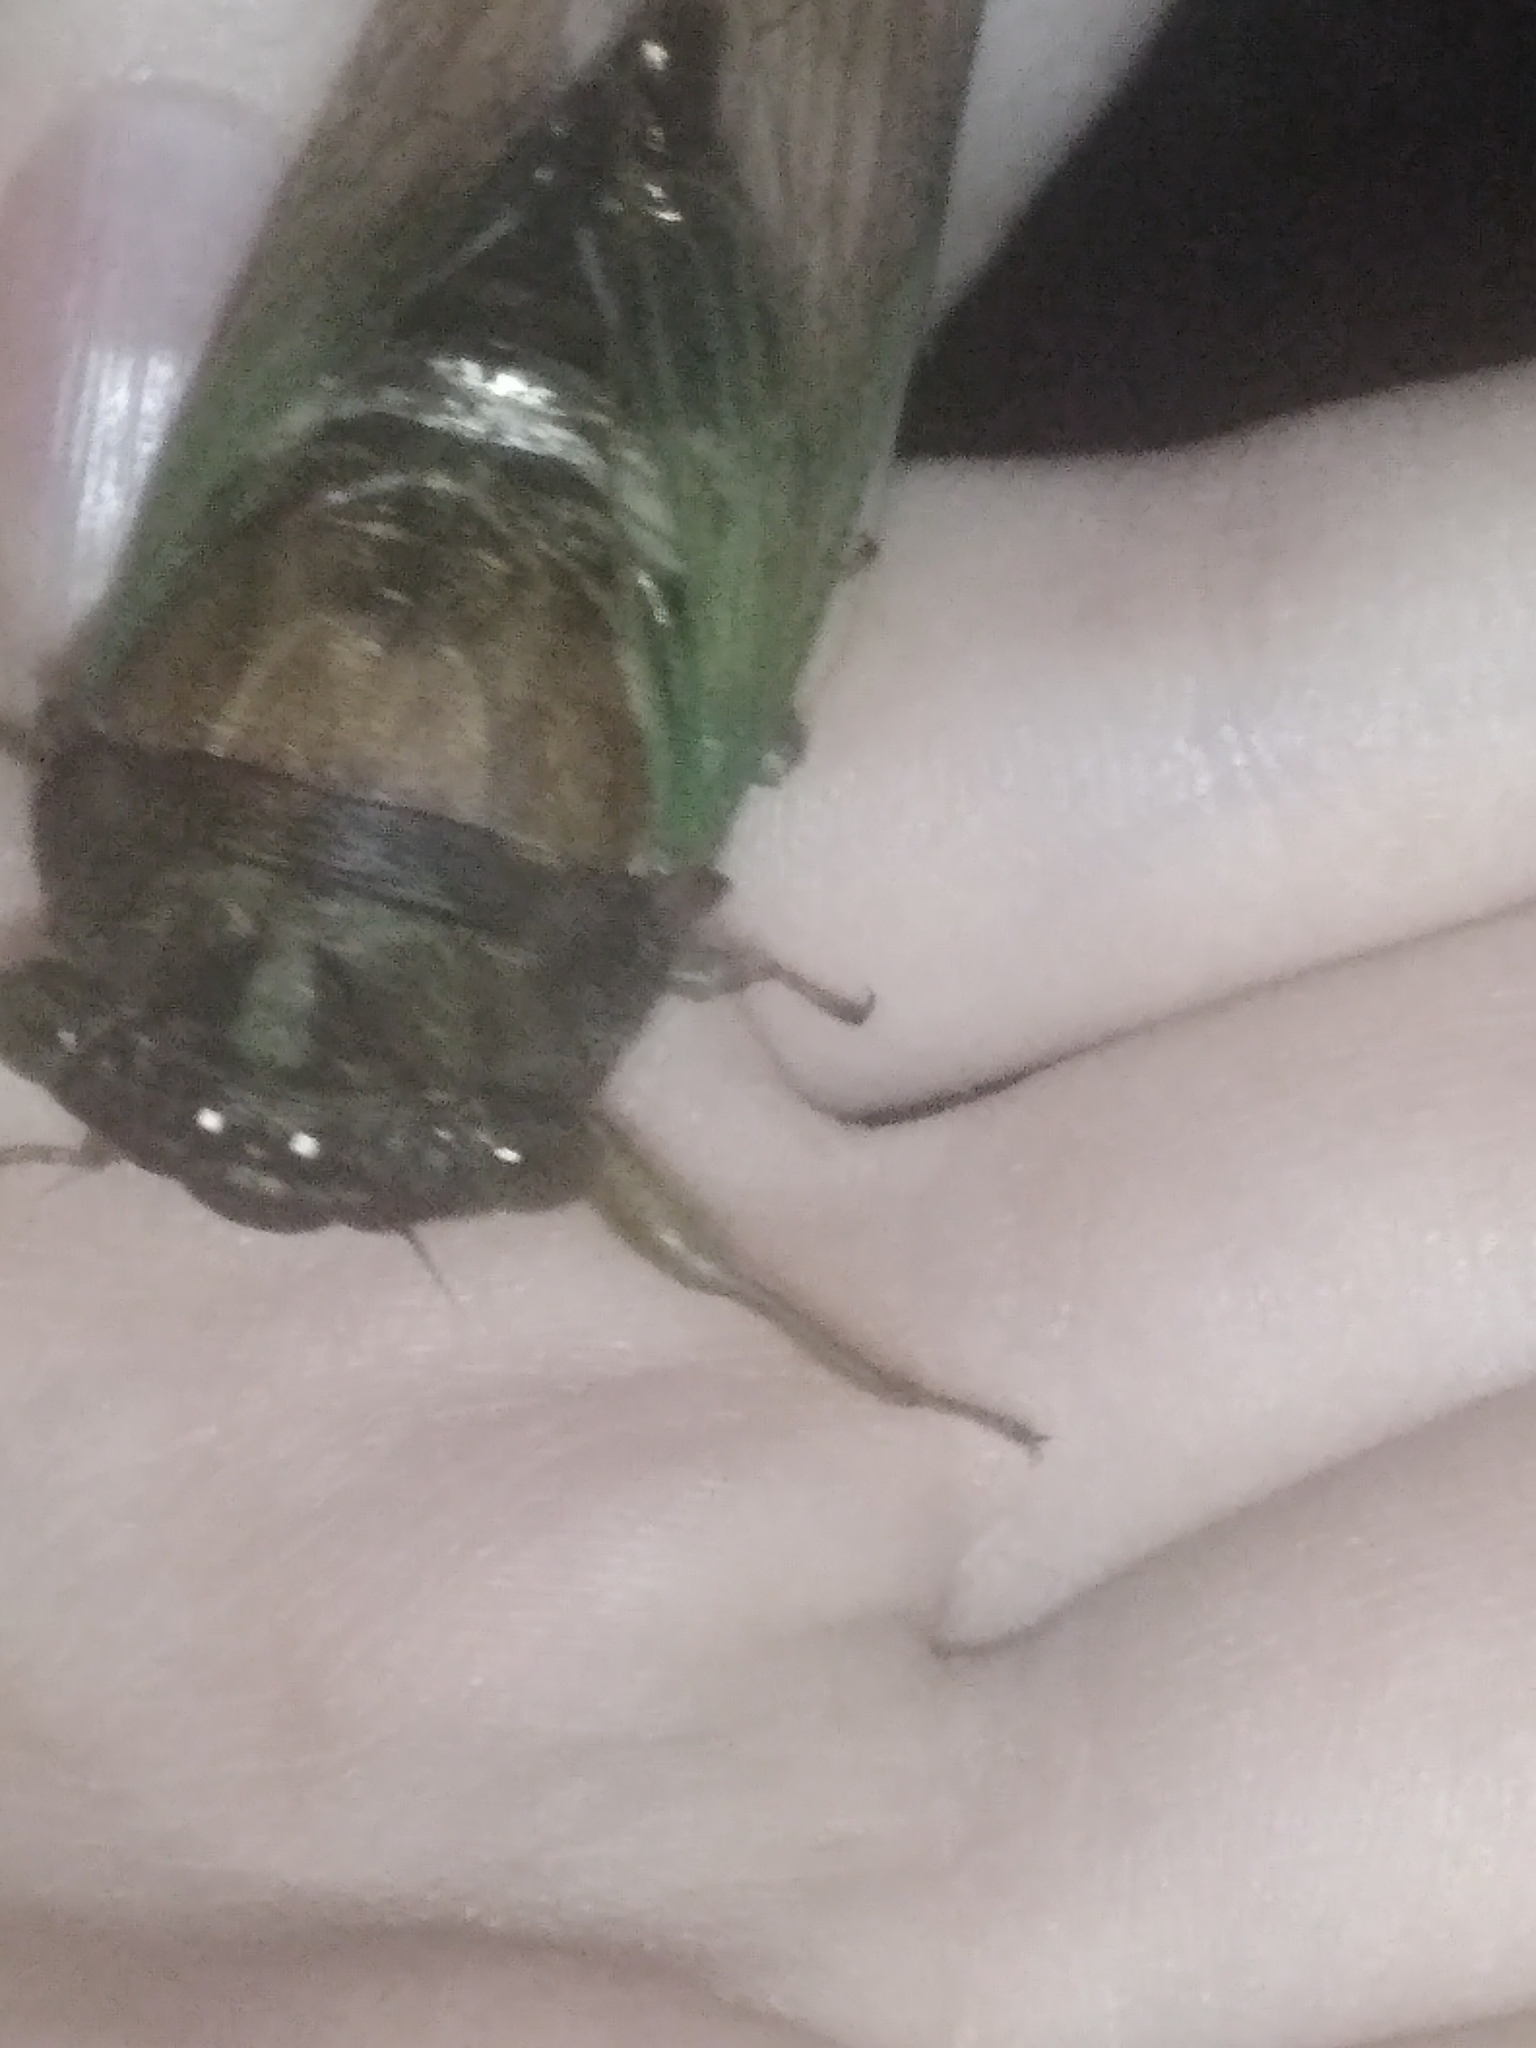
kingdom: Animalia
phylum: Arthropoda
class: Insecta
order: Hemiptera
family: Cicadidae
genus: Neotibicen
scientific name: Neotibicen tibicen
